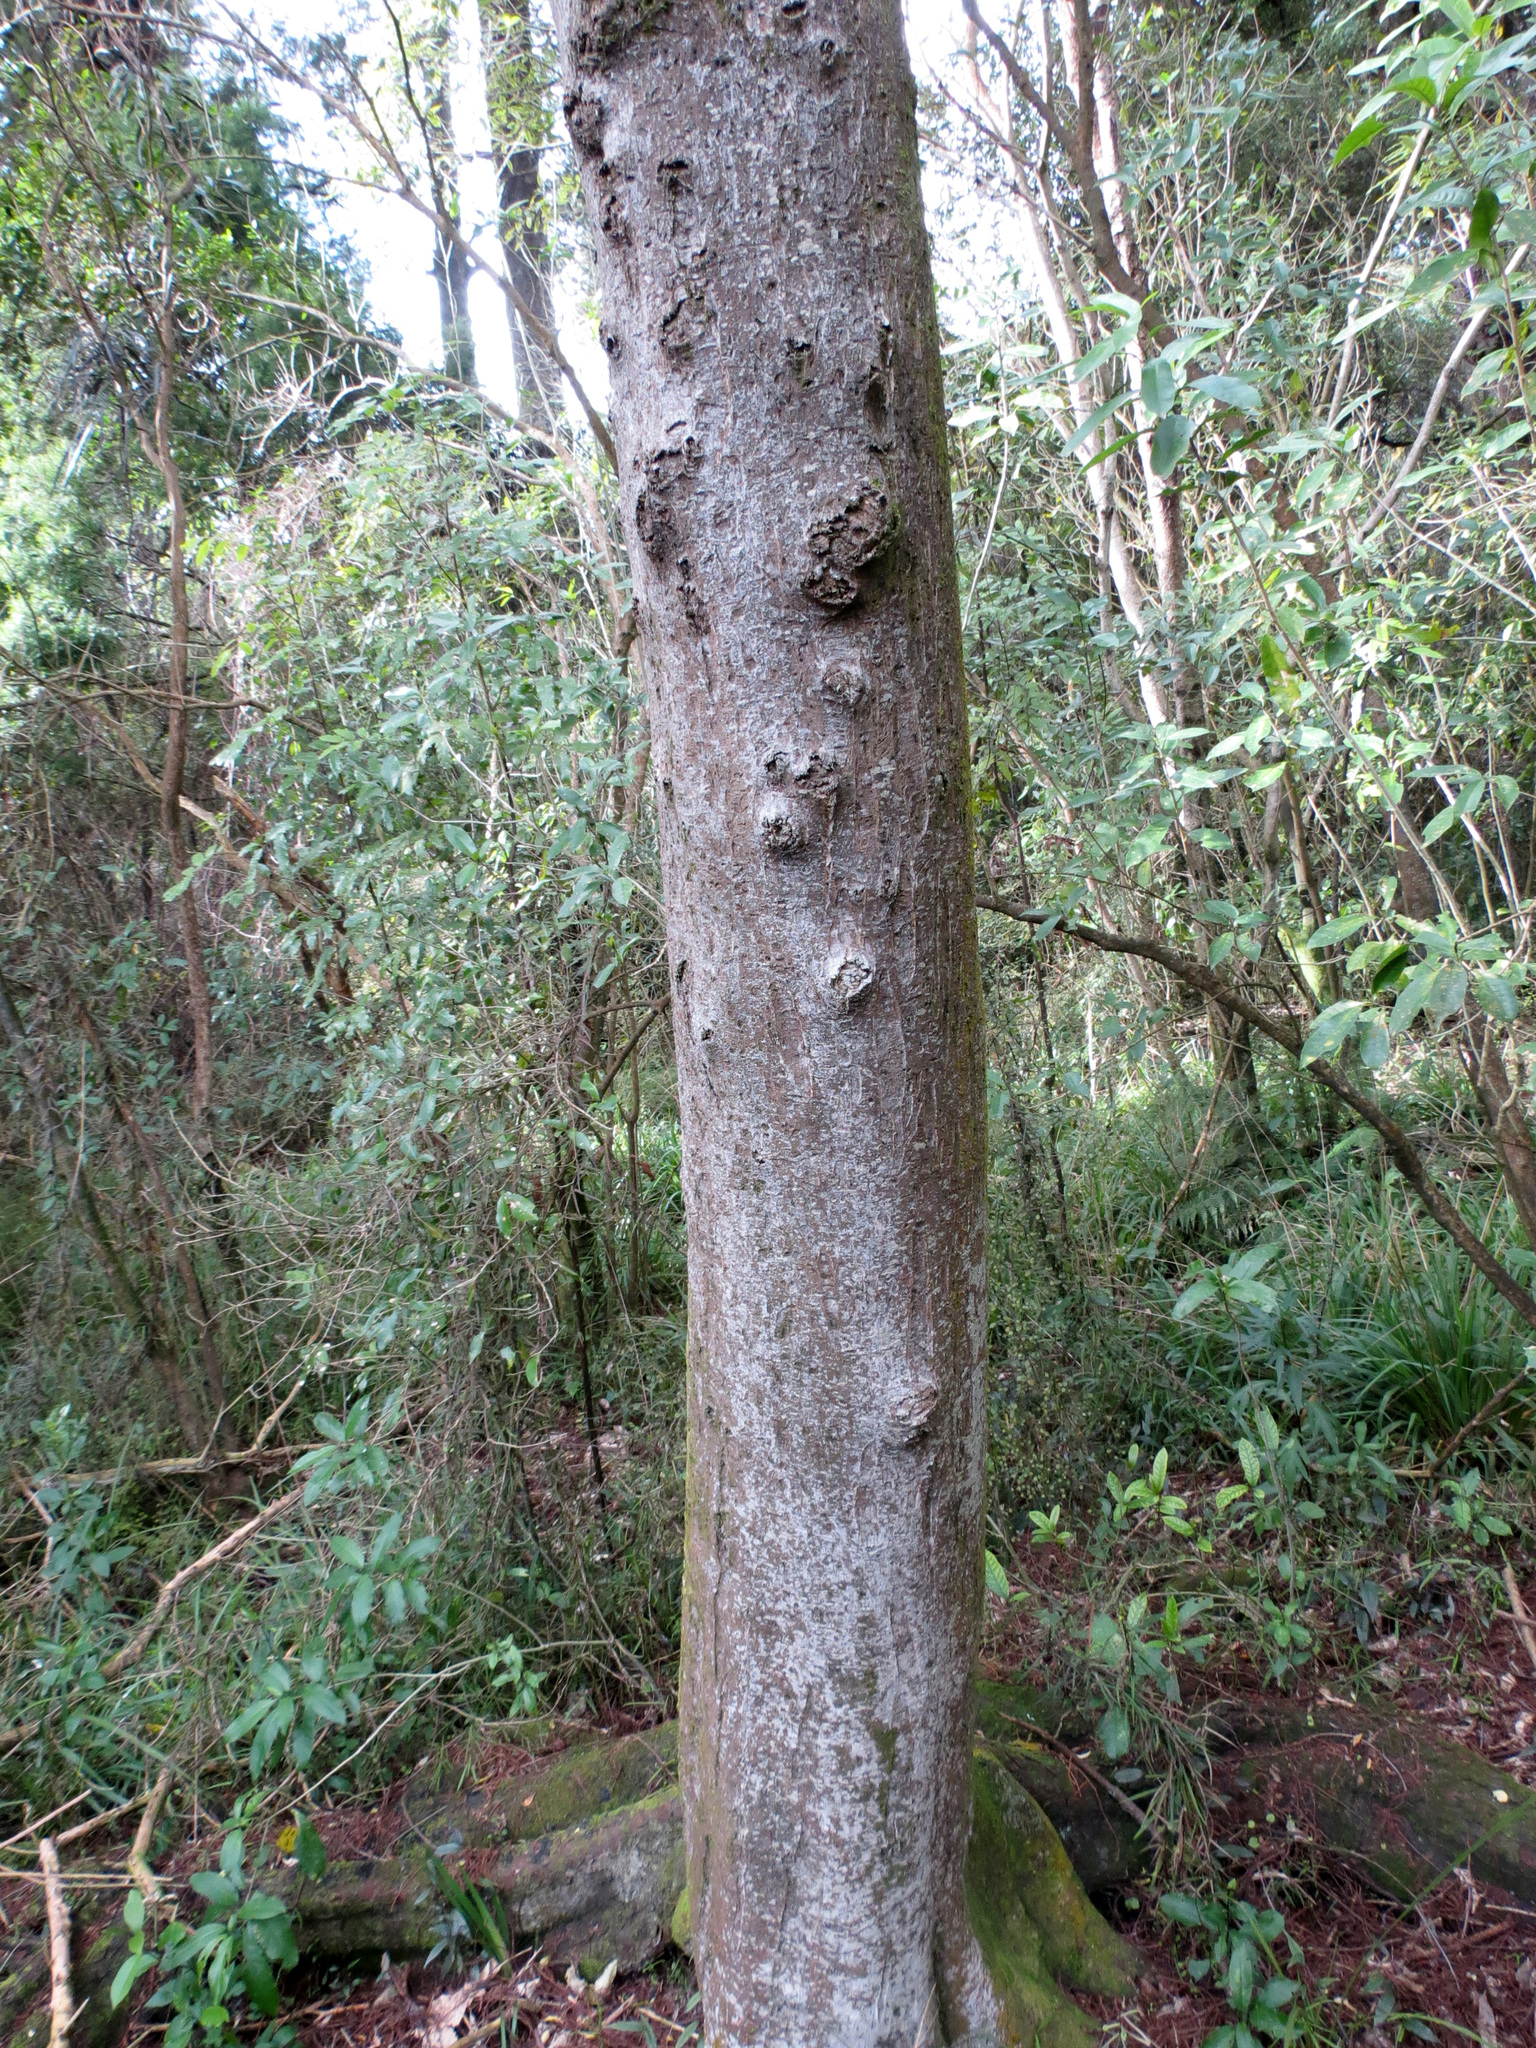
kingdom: Plantae
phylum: Tracheophyta
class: Magnoliopsida
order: Malvales
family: Malvaceae
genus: Hoheria
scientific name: Hoheria angustifolia
